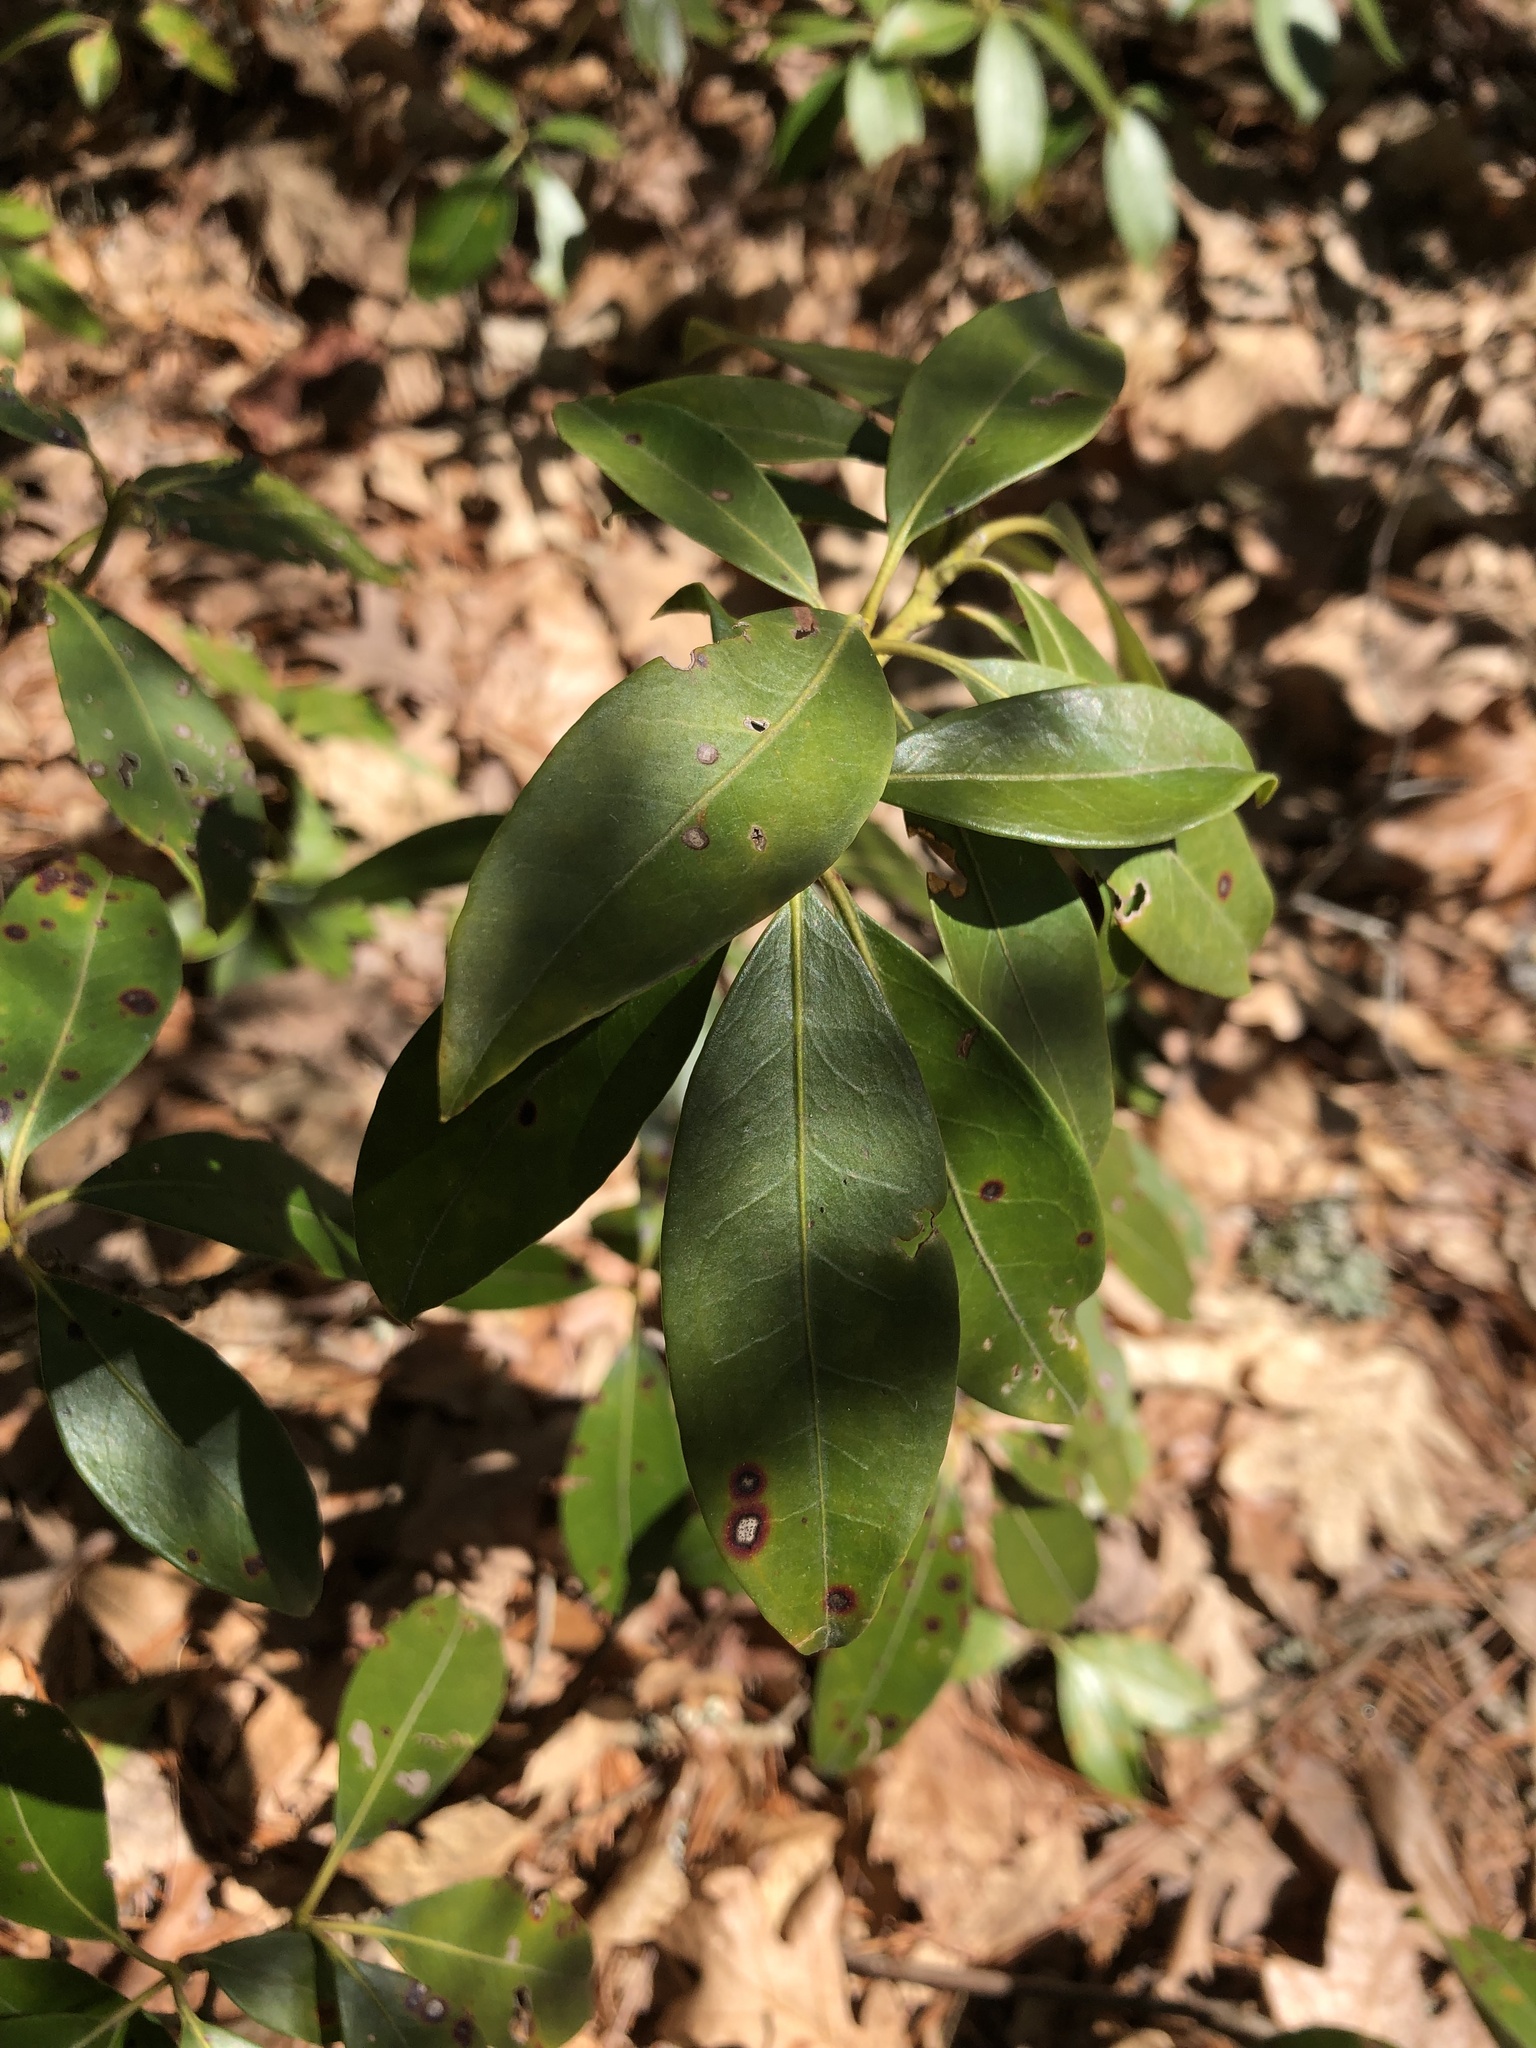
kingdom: Plantae
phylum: Tracheophyta
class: Magnoliopsida
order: Ericales
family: Ericaceae
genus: Kalmia
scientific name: Kalmia latifolia
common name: Mountain-laurel
